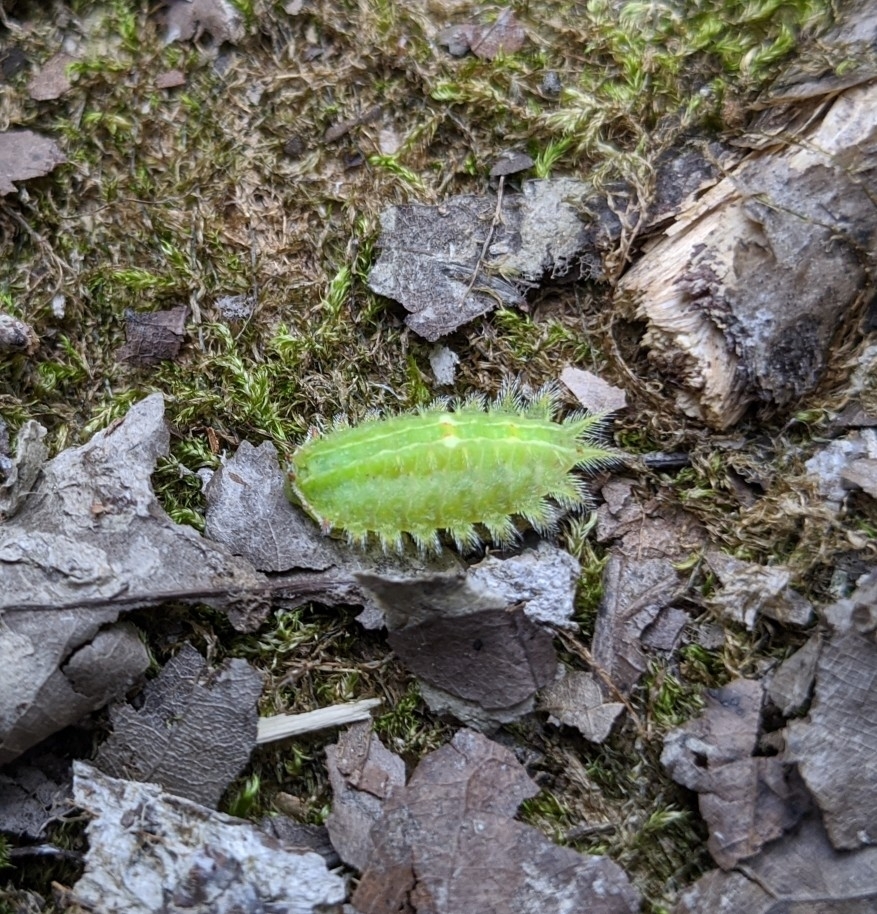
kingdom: Animalia
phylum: Arthropoda
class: Insecta
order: Lepidoptera
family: Limacodidae
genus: Isa
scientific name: Isa textula
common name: Crowned slug moth
